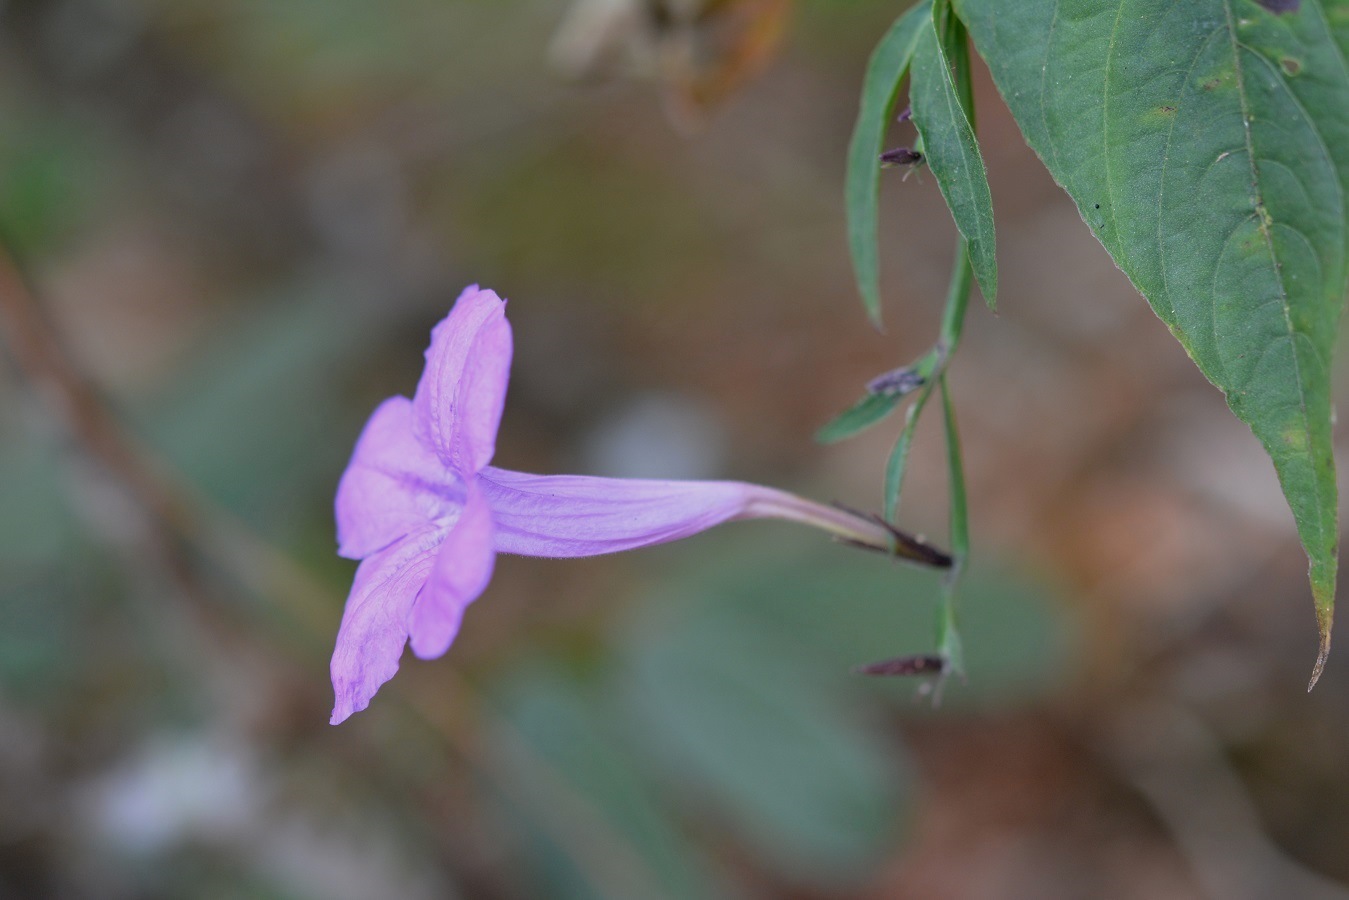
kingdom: Plantae
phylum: Tracheophyta
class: Magnoliopsida
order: Lamiales
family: Acanthaceae
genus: Ruellia
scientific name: Ruellia breedlovei
